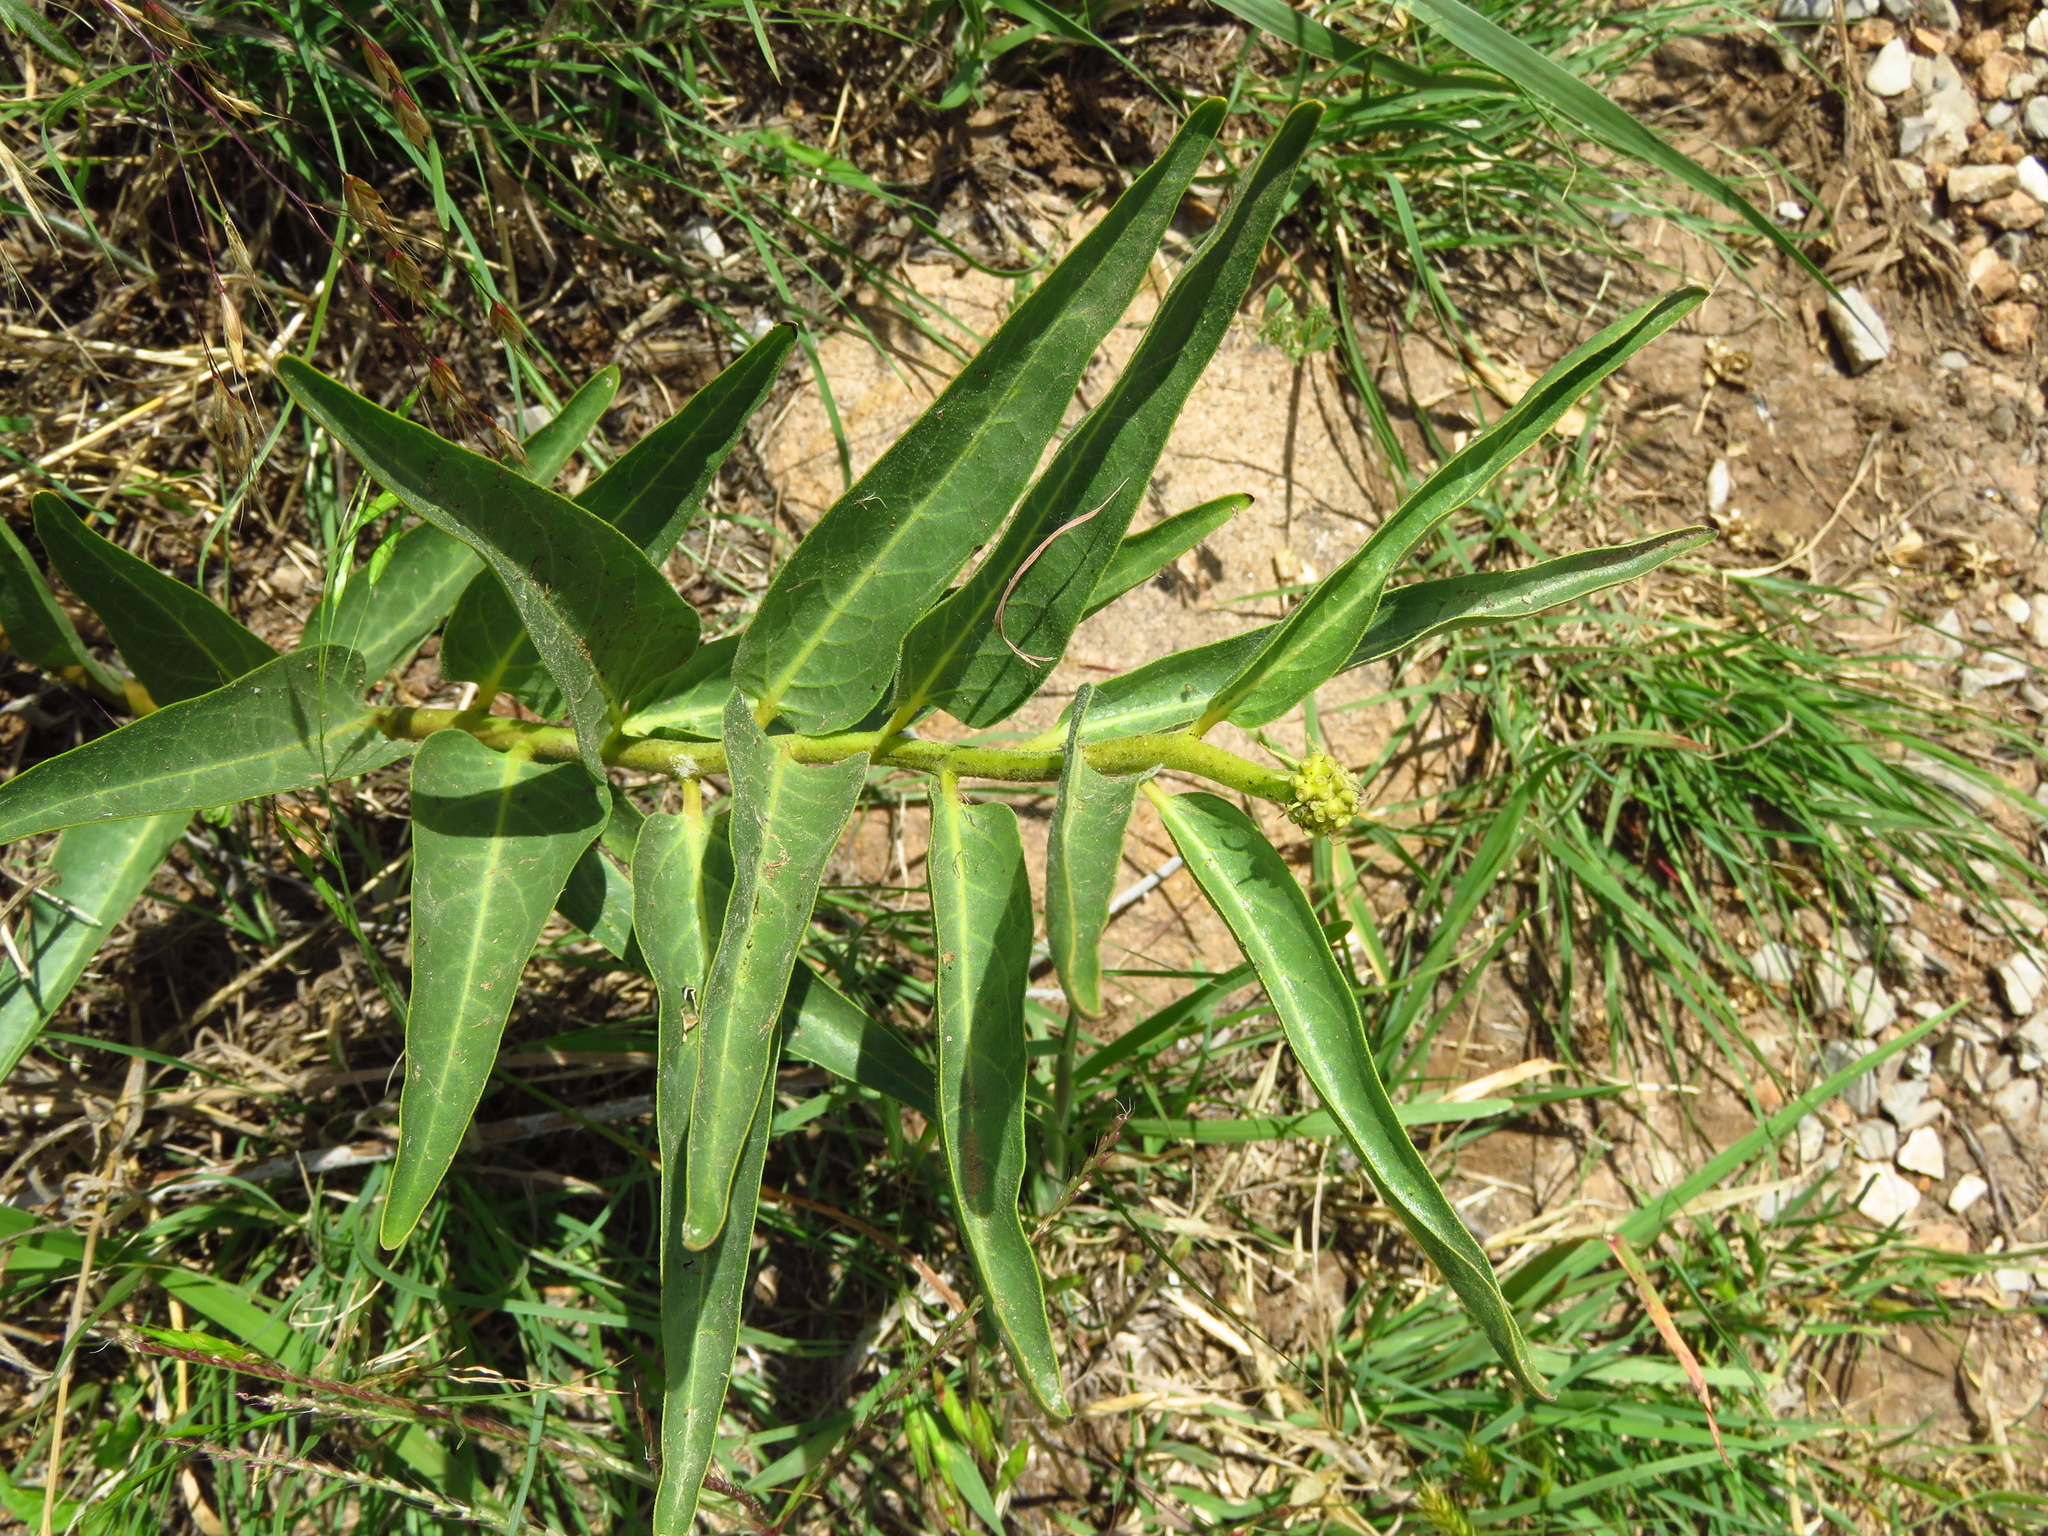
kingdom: Plantae
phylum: Tracheophyta
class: Magnoliopsida
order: Gentianales
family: Apocynaceae
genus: Asclepias
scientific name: Asclepias asperula
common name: Antelope horns
